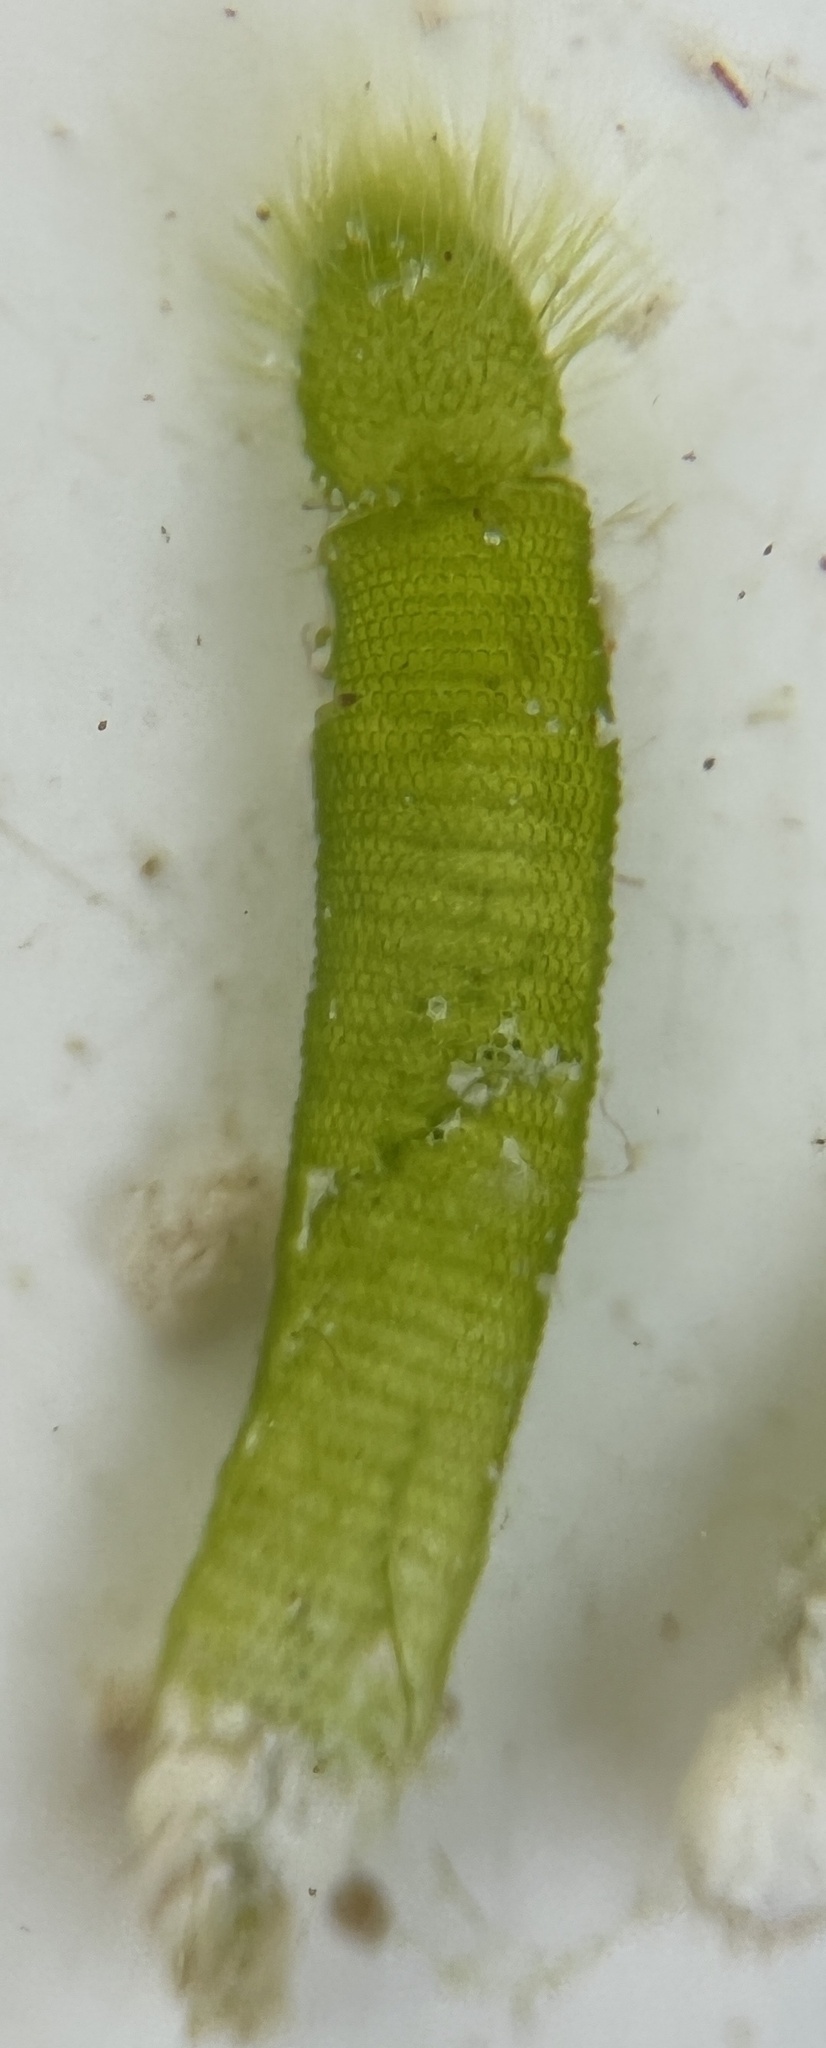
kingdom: Plantae
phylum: Chlorophyta
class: Ulvophyceae
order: Dasycladales
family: Dasycladaceae
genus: Neomeris
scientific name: Neomeris annulata
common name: Fuzzy tip algae
